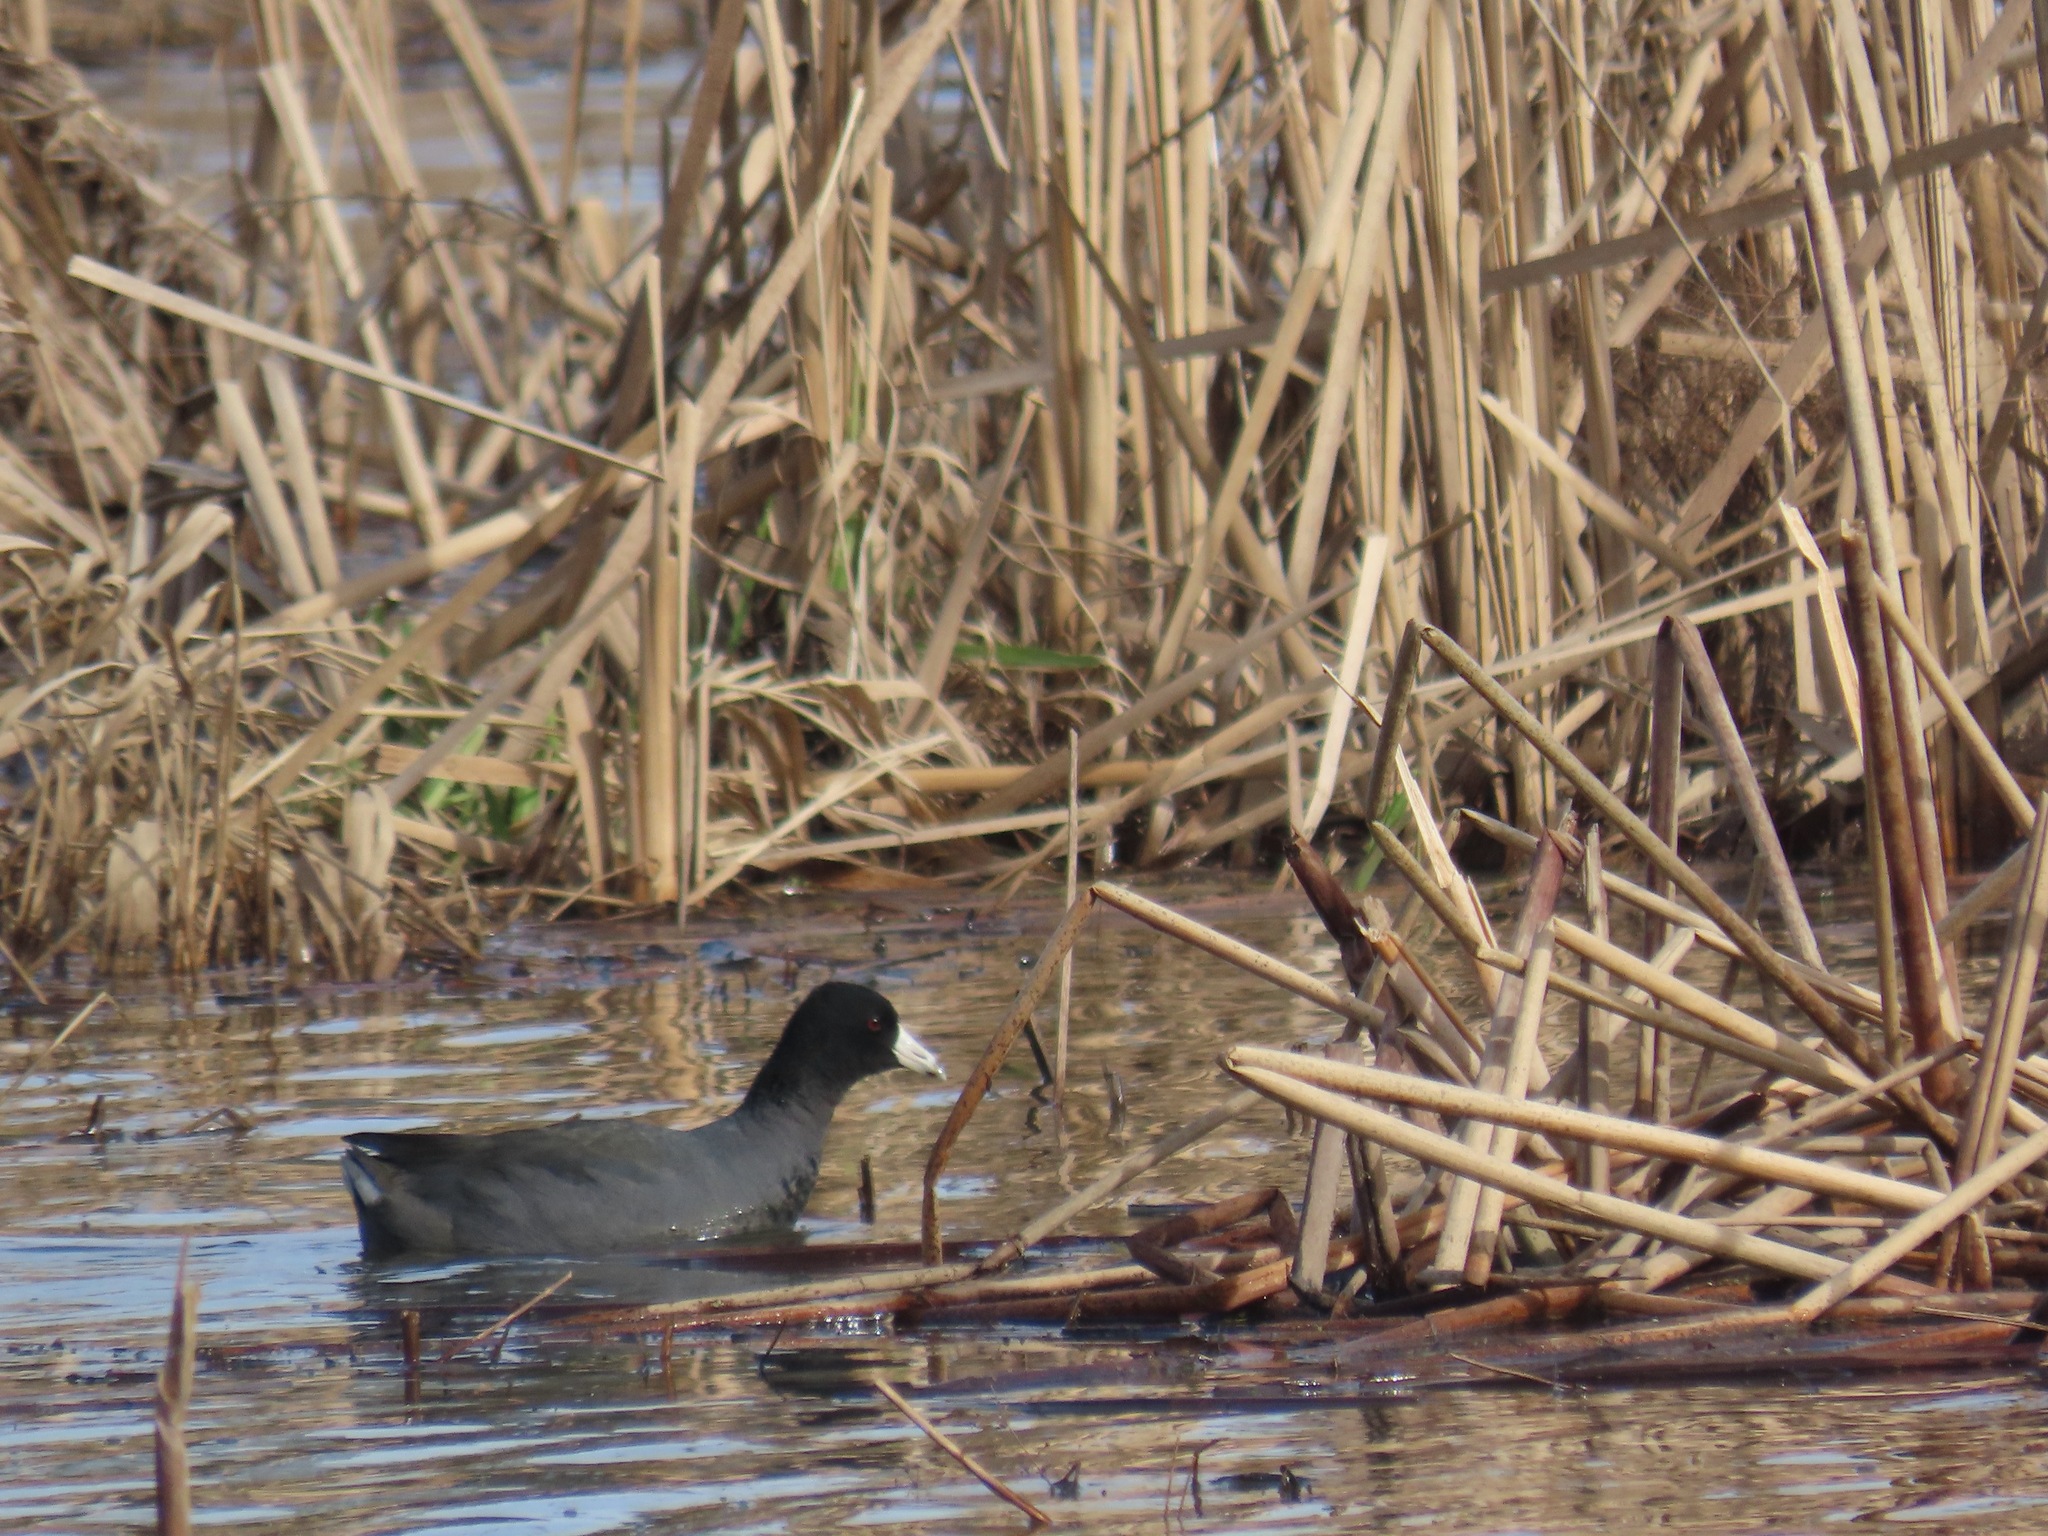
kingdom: Animalia
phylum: Chordata
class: Aves
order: Gruiformes
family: Rallidae
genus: Fulica
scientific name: Fulica americana
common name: American coot
